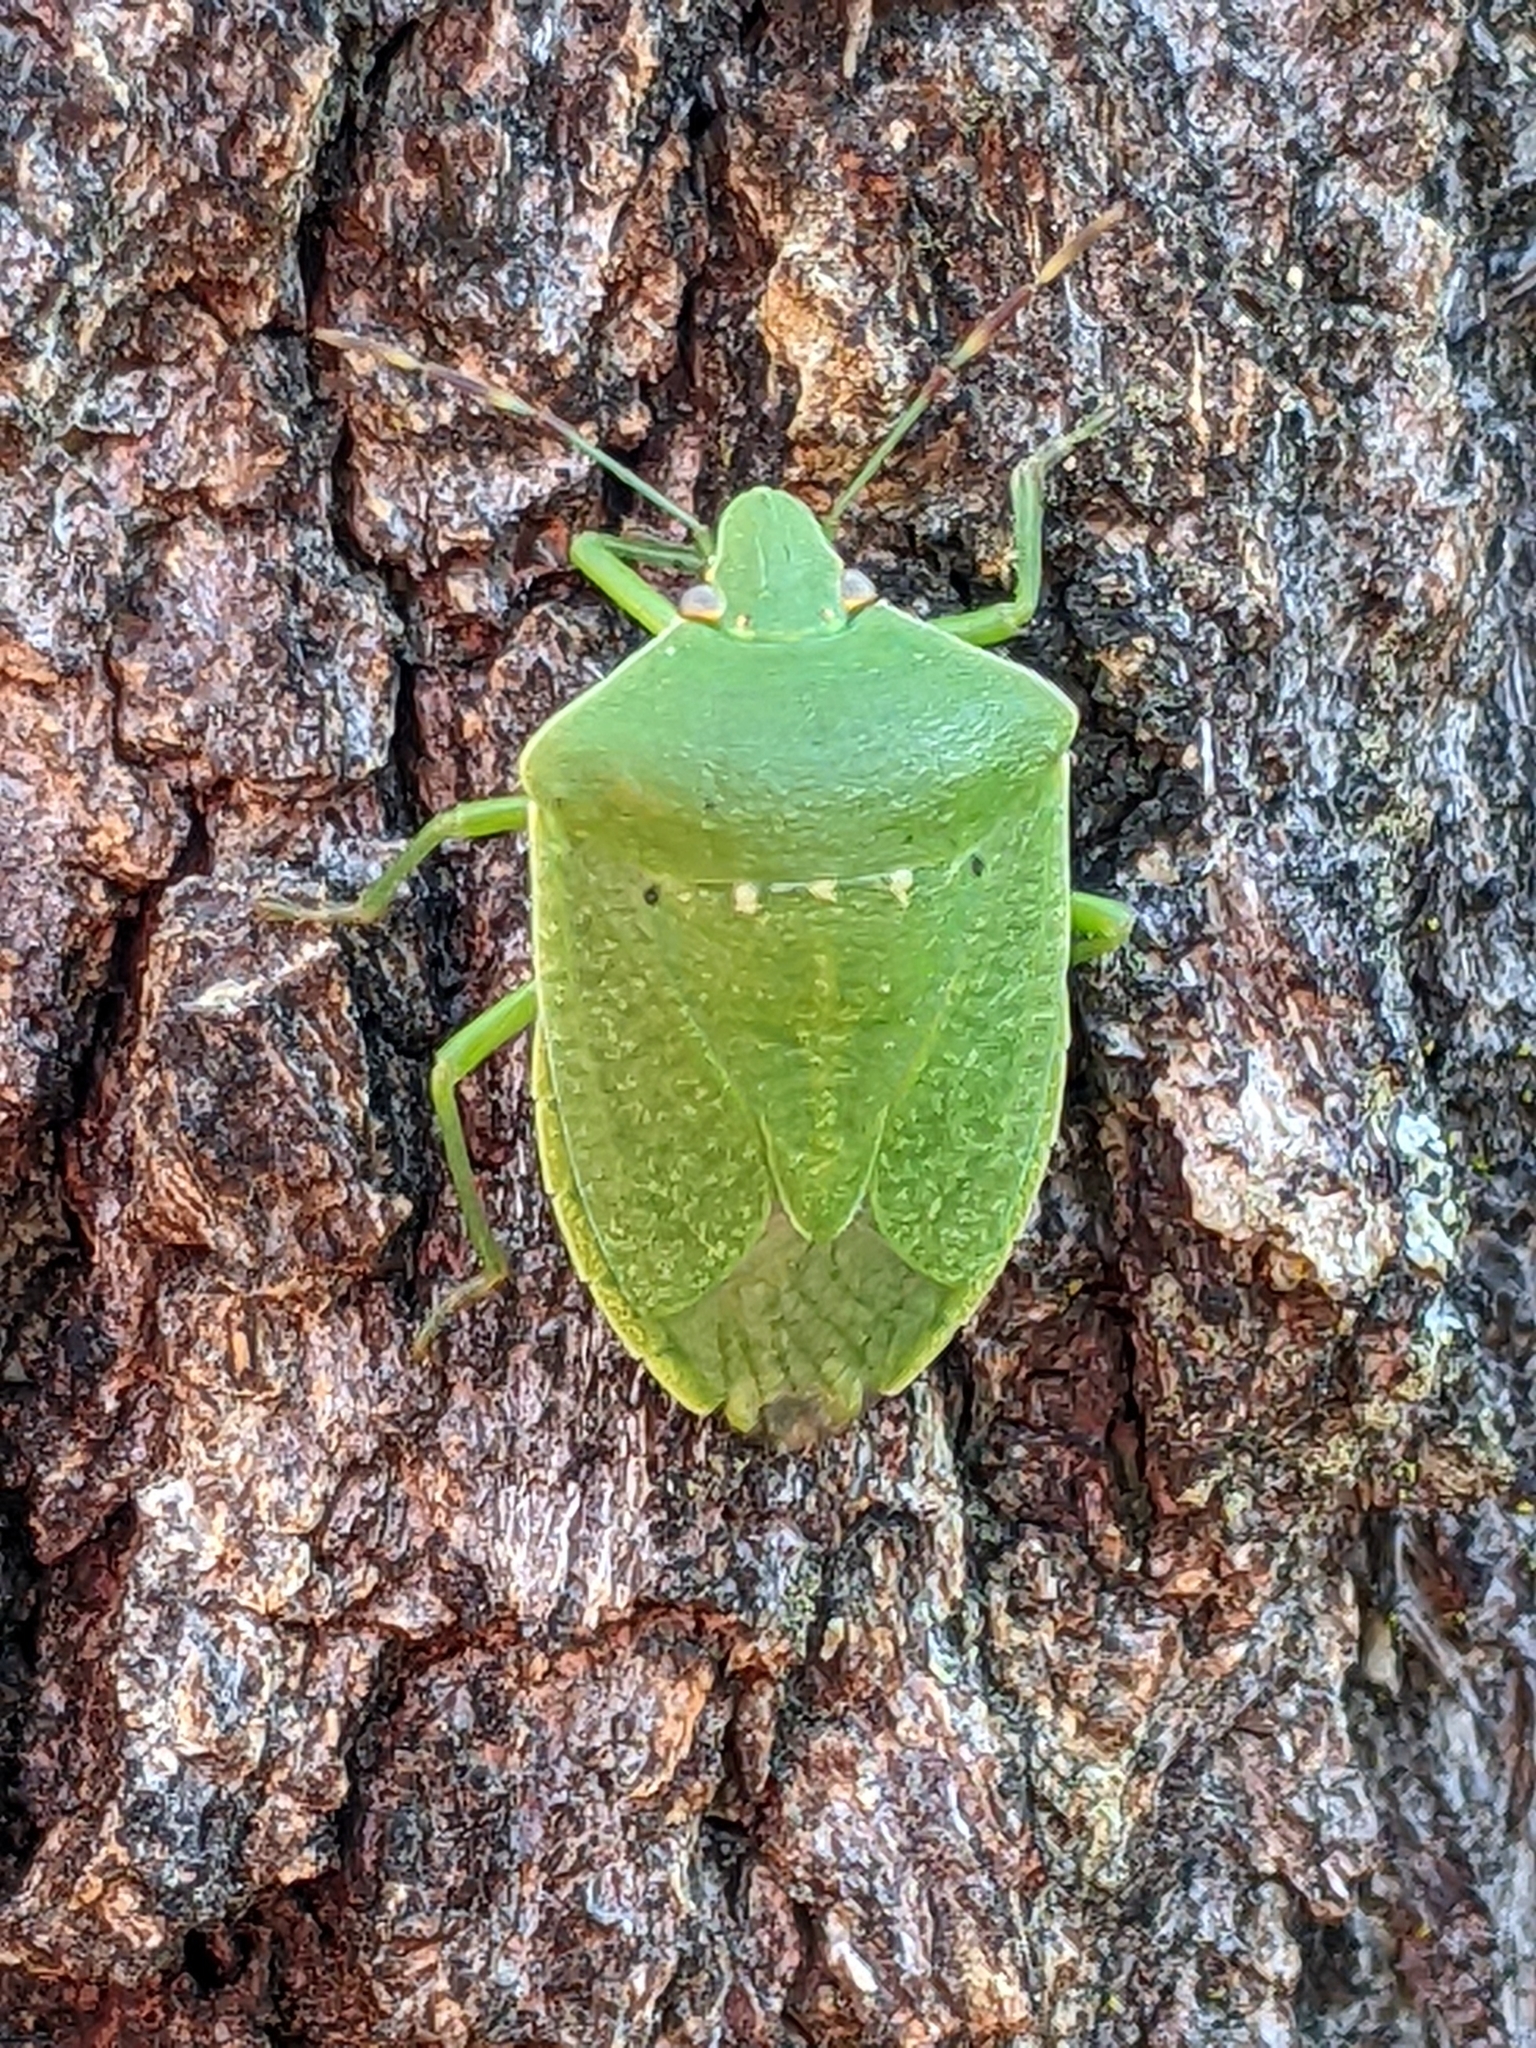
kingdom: Animalia
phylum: Arthropoda
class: Insecta
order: Hemiptera
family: Pentatomidae
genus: Nezara
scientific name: Nezara viridula
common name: Southern green stink bug
